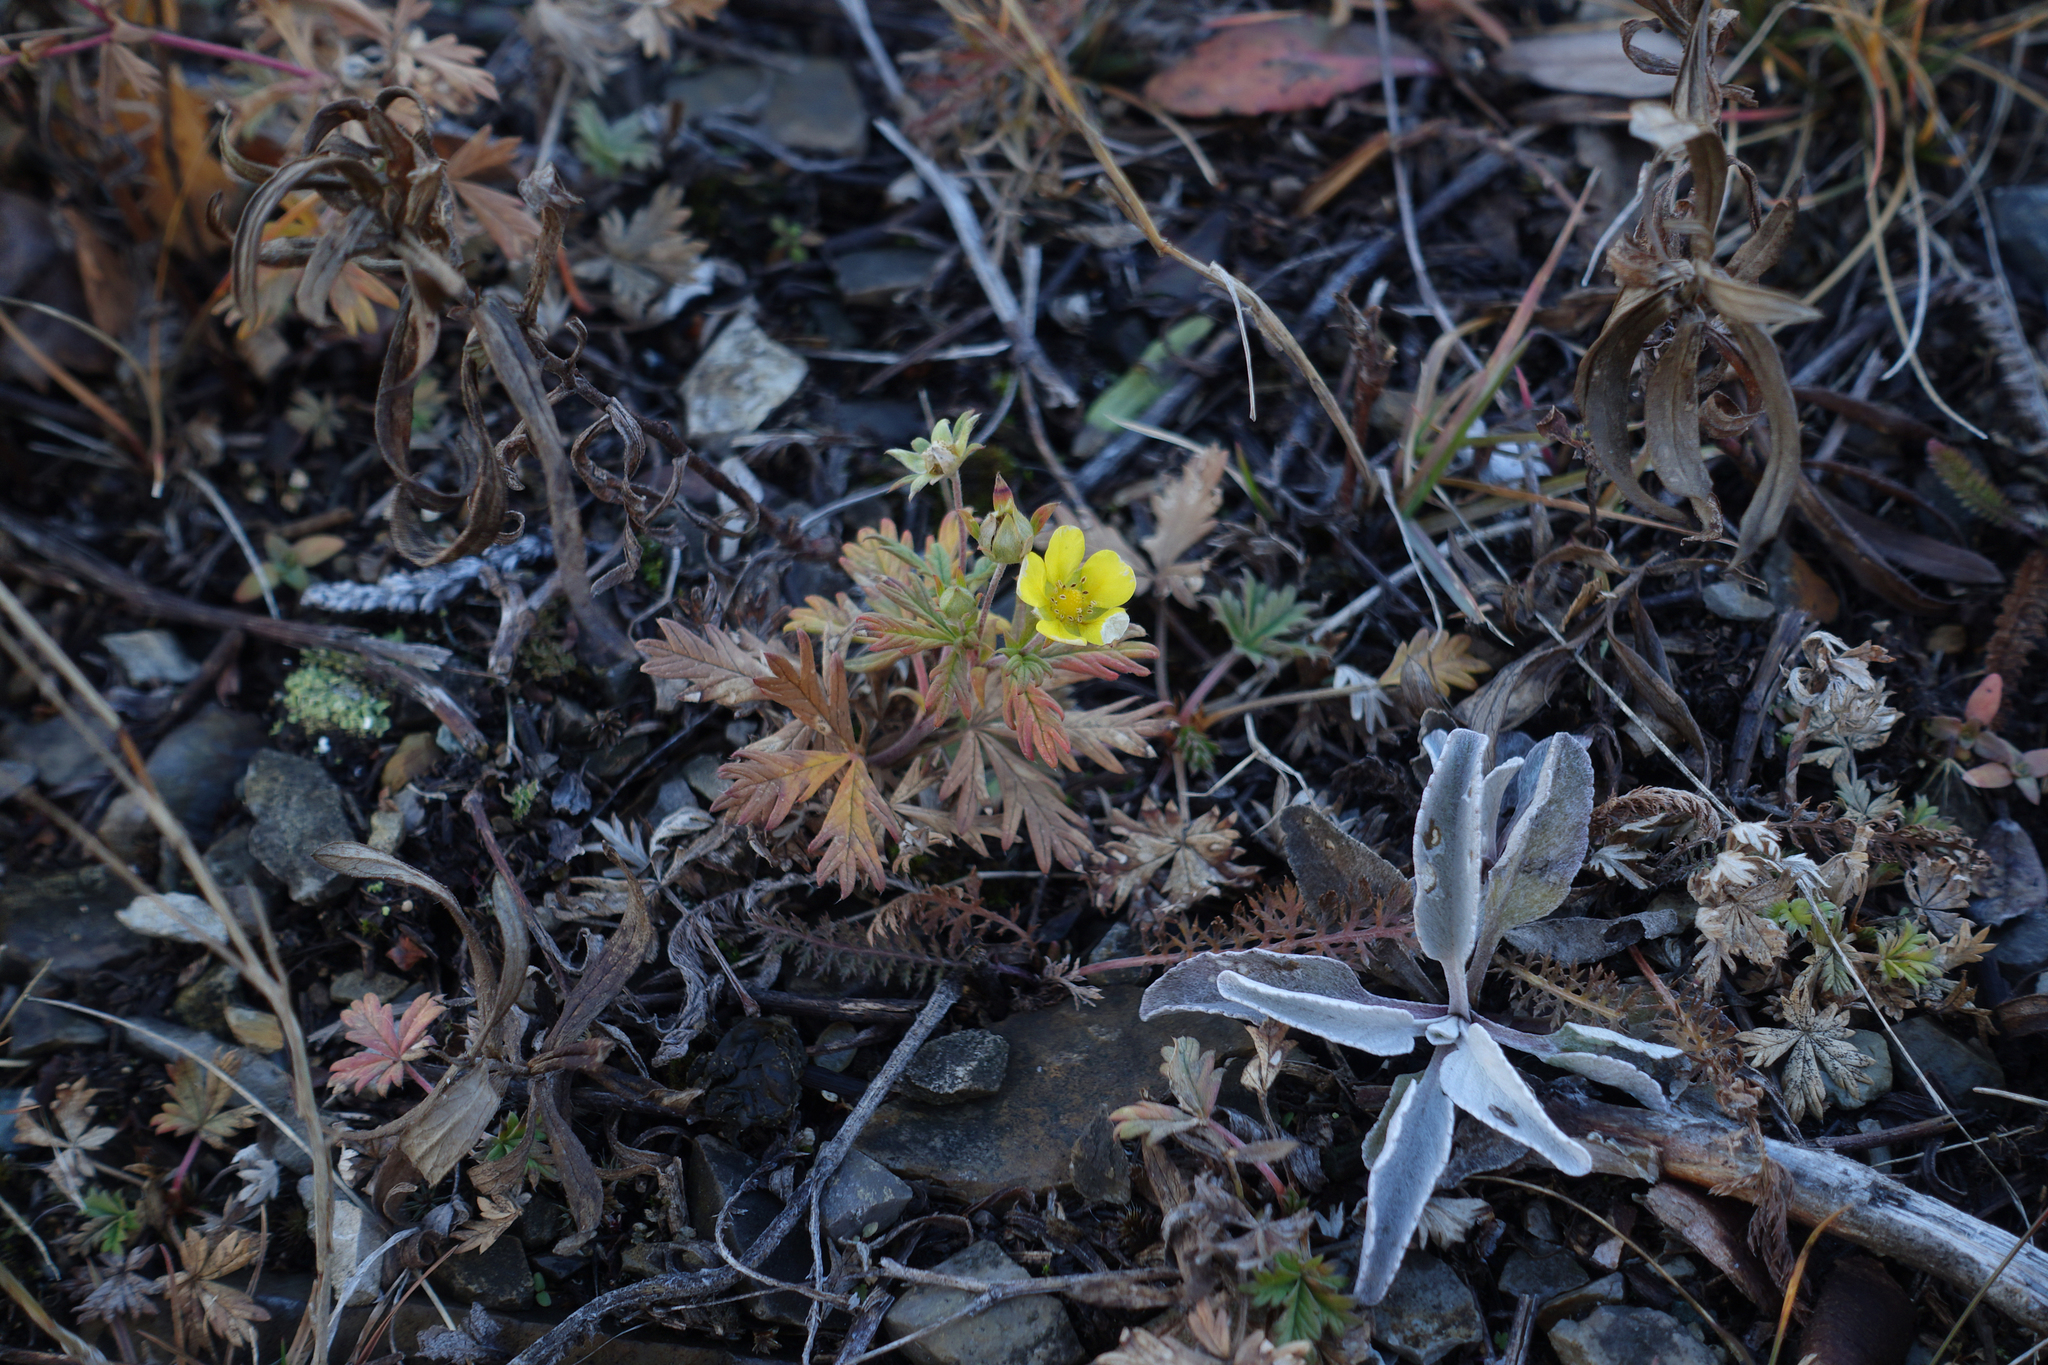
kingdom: Plantae
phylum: Tracheophyta
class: Magnoliopsida
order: Rosales
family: Rosaceae
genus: Potentilla
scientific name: Potentilla argentea
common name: Hoary cinquefoil
